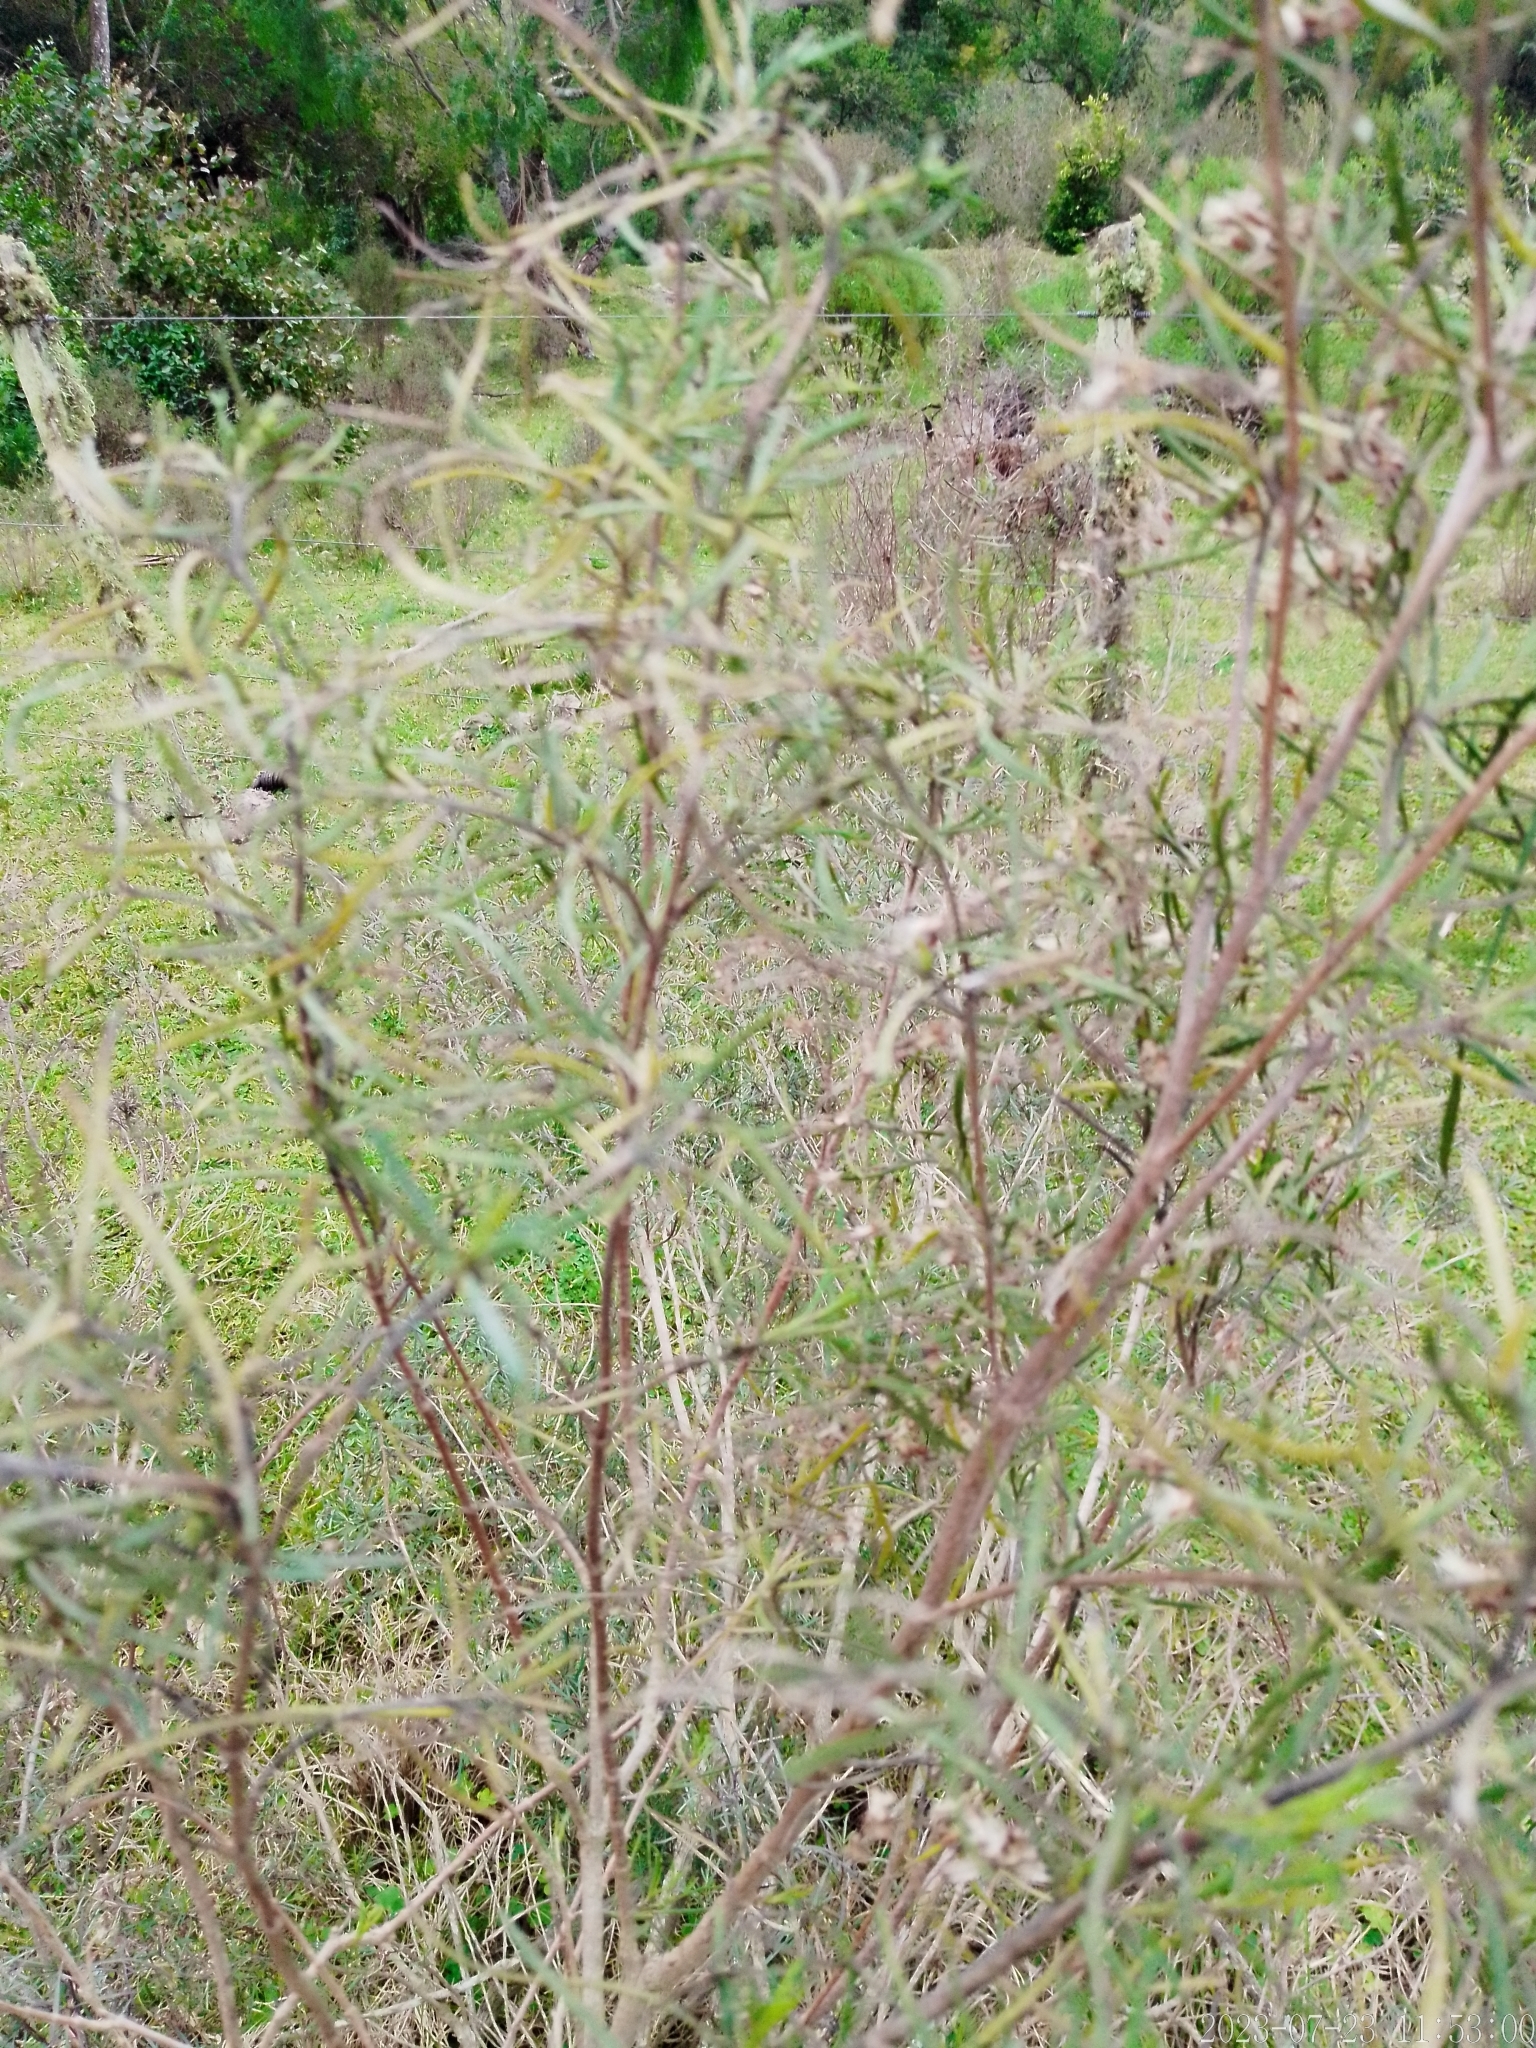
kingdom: Plantae
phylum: Tracheophyta
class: Magnoliopsida
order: Asterales
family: Asteraceae
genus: Acanthostyles
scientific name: Acanthostyles buniifolius
